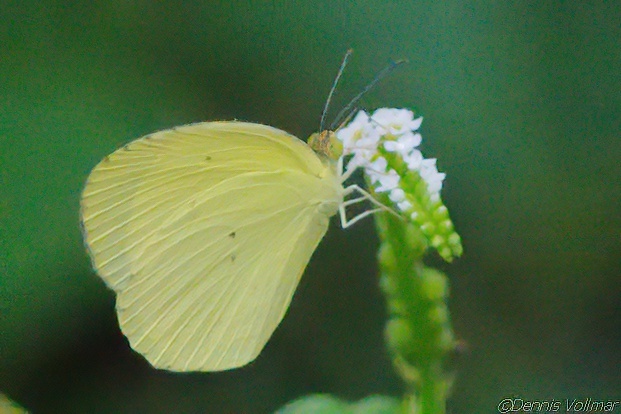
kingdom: Animalia
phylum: Arthropoda
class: Insecta
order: Lepidoptera
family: Pieridae
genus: Pyrisitia
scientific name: Pyrisitia nise
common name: Mimosa yellow
